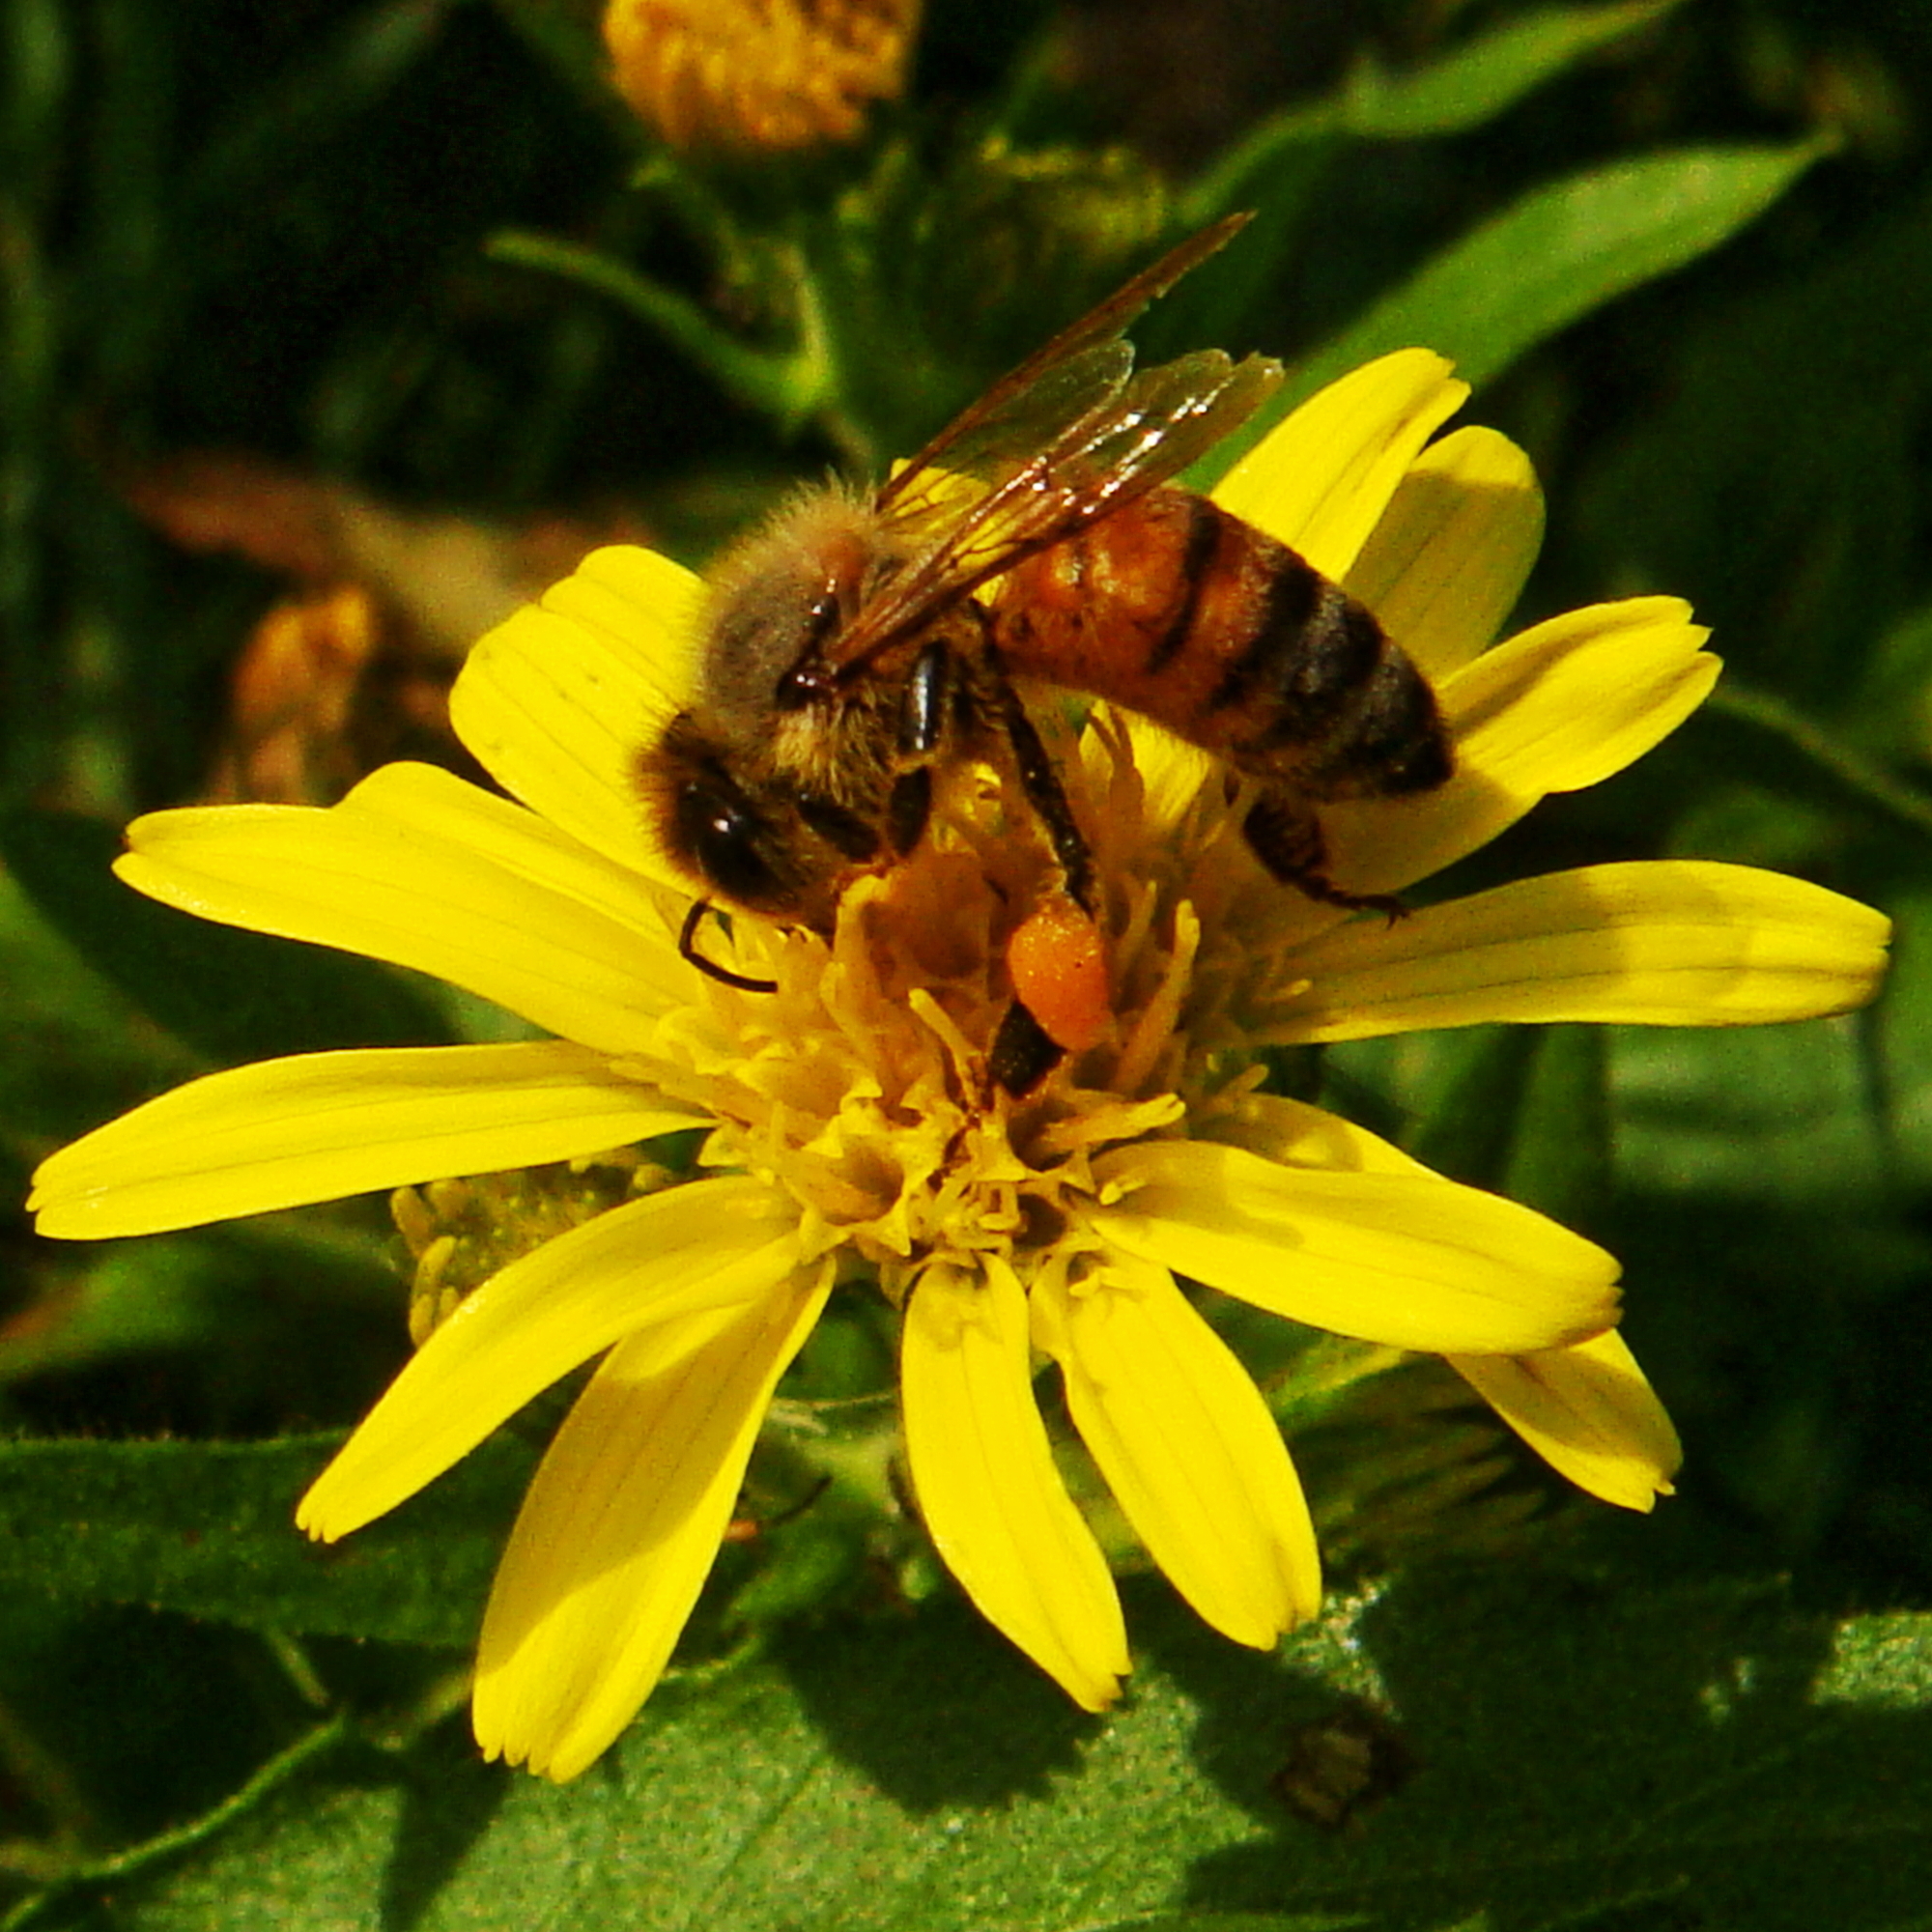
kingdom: Animalia
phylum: Arthropoda
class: Insecta
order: Hymenoptera
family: Apidae
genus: Apis
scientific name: Apis mellifera
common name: Honey bee
